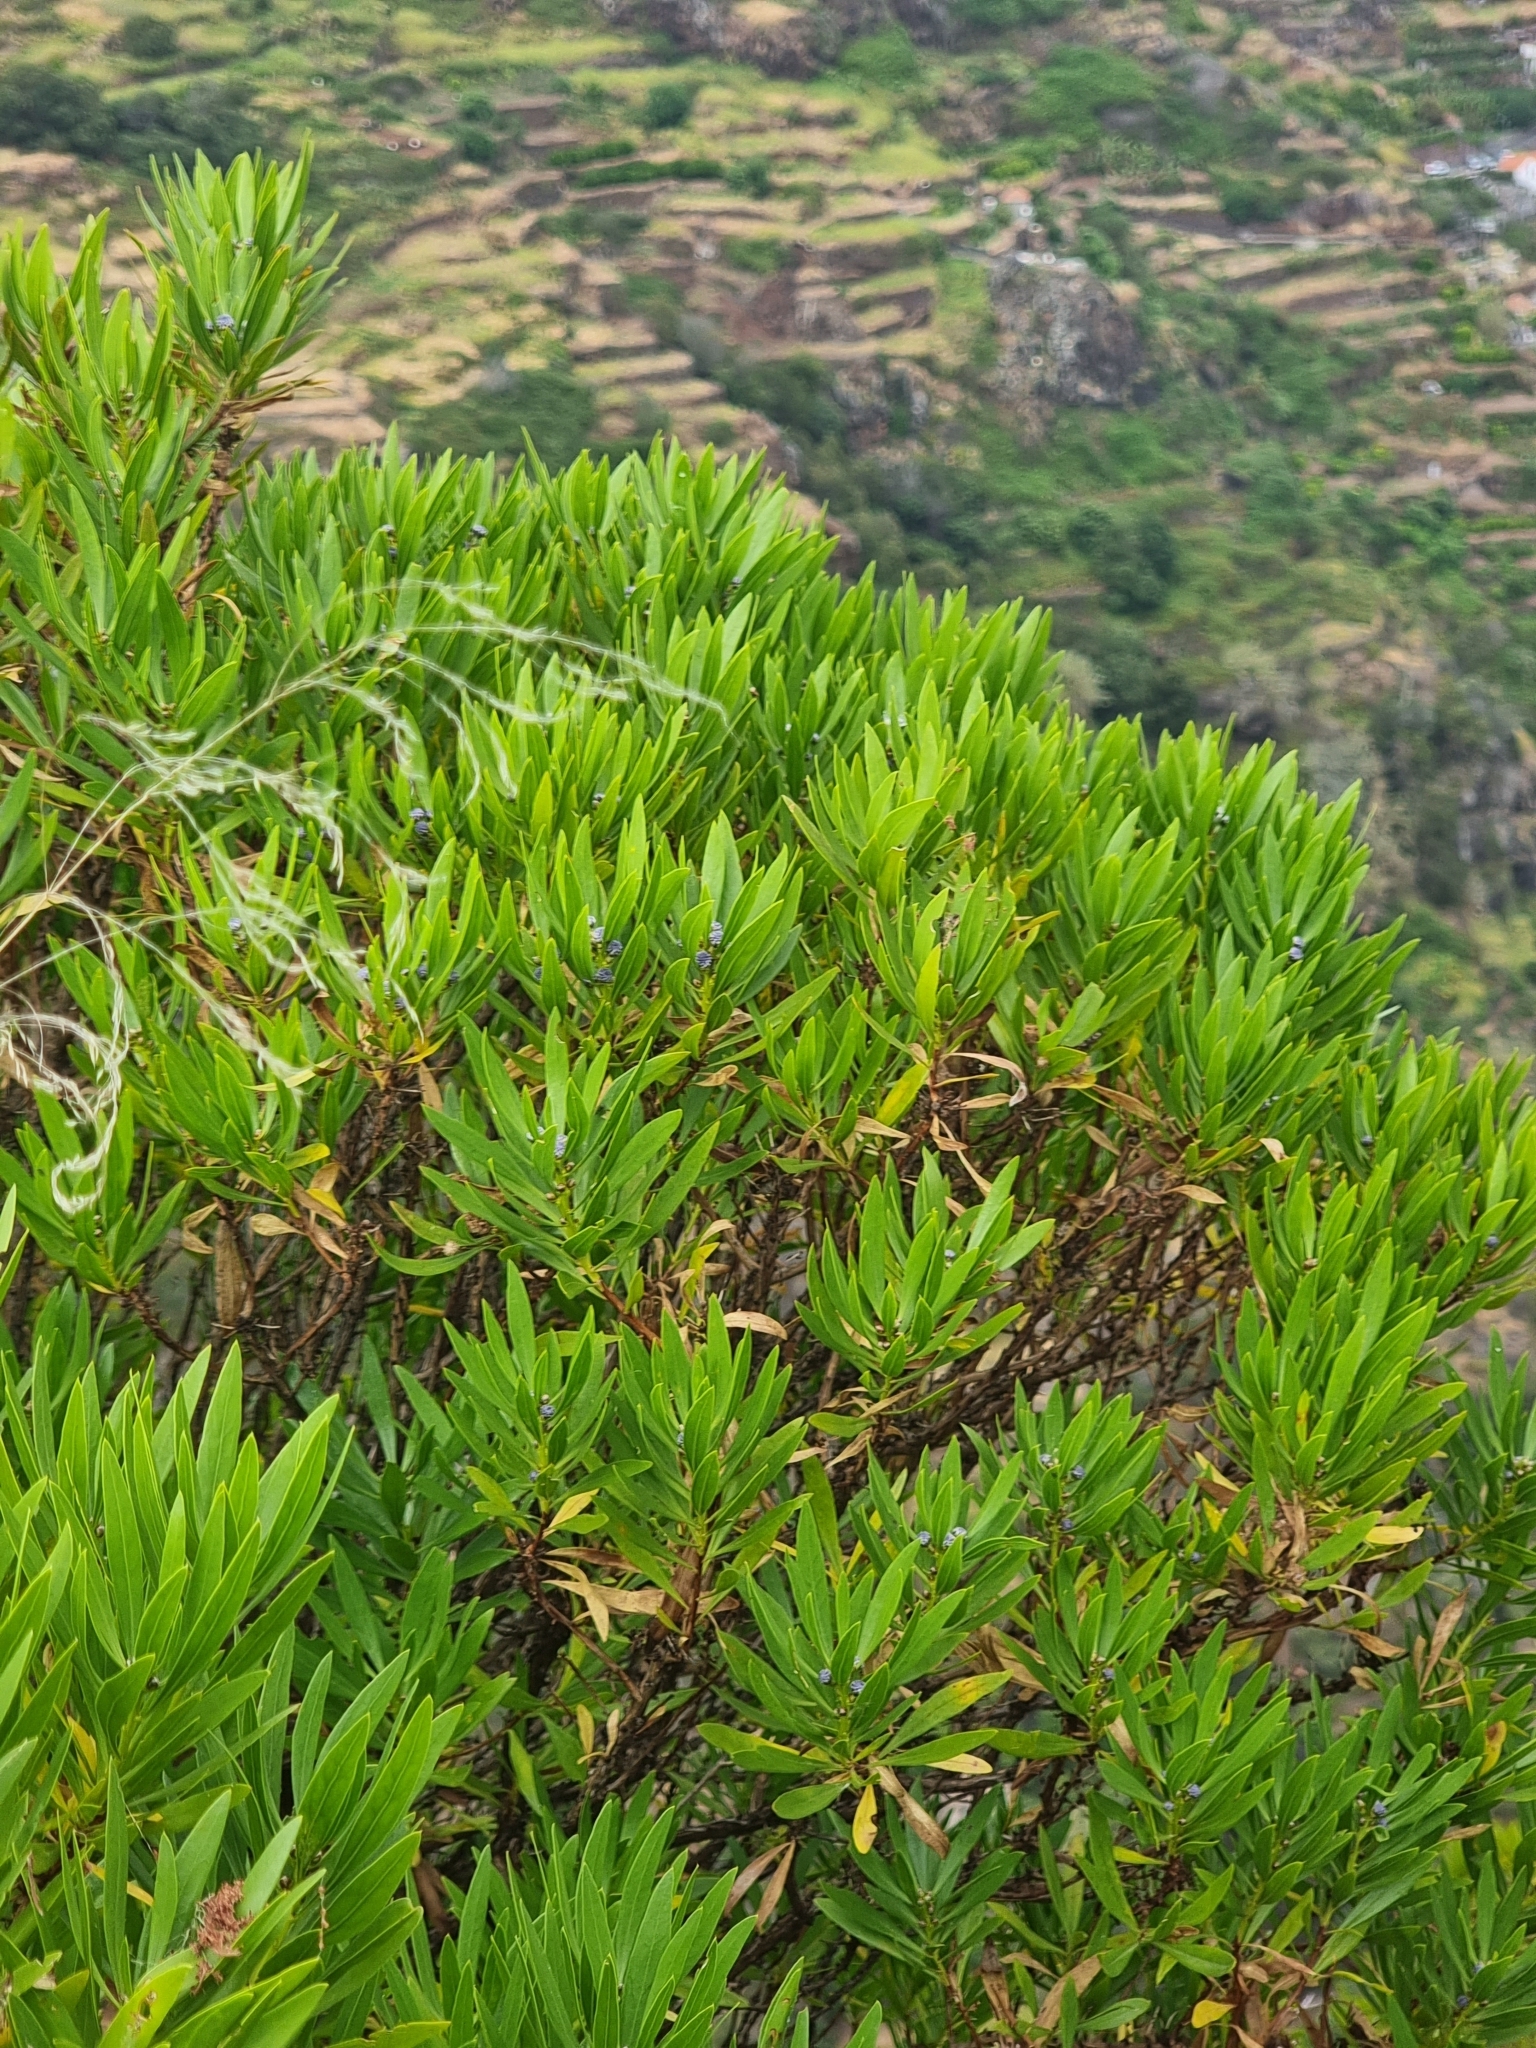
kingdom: Plantae
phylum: Tracheophyta
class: Magnoliopsida
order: Lamiales
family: Plantaginaceae
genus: Globularia
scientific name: Globularia salicina
